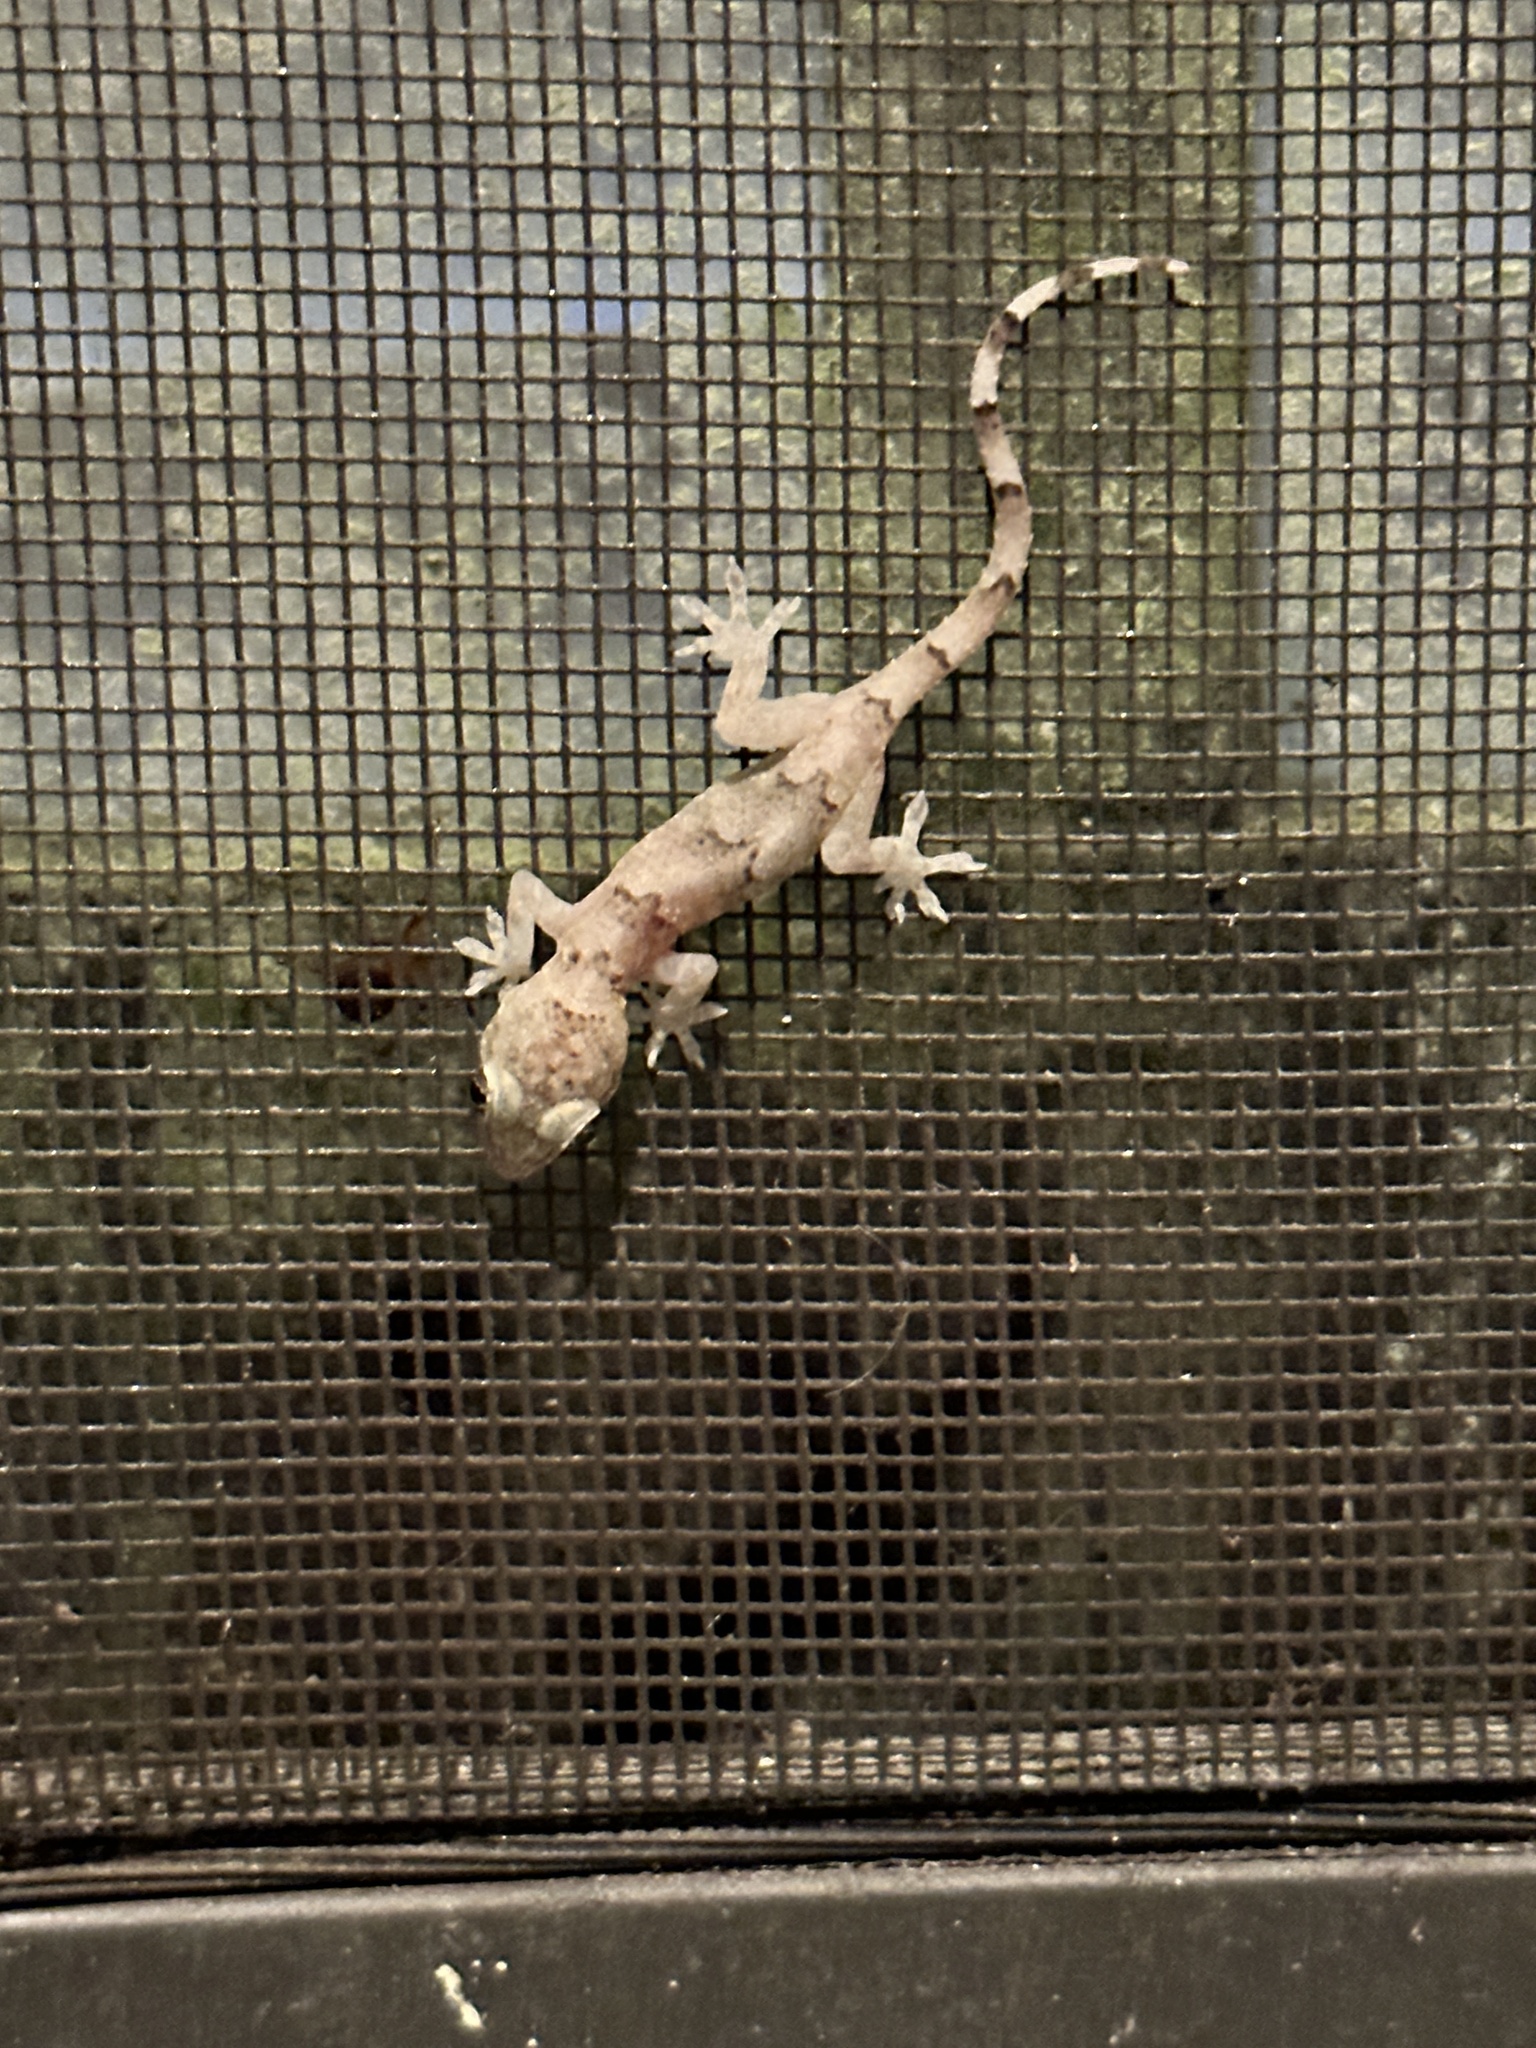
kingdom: Animalia
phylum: Chordata
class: Squamata
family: Gekkonidae
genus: Hemidactylus
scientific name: Hemidactylus mabouia
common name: House gecko
